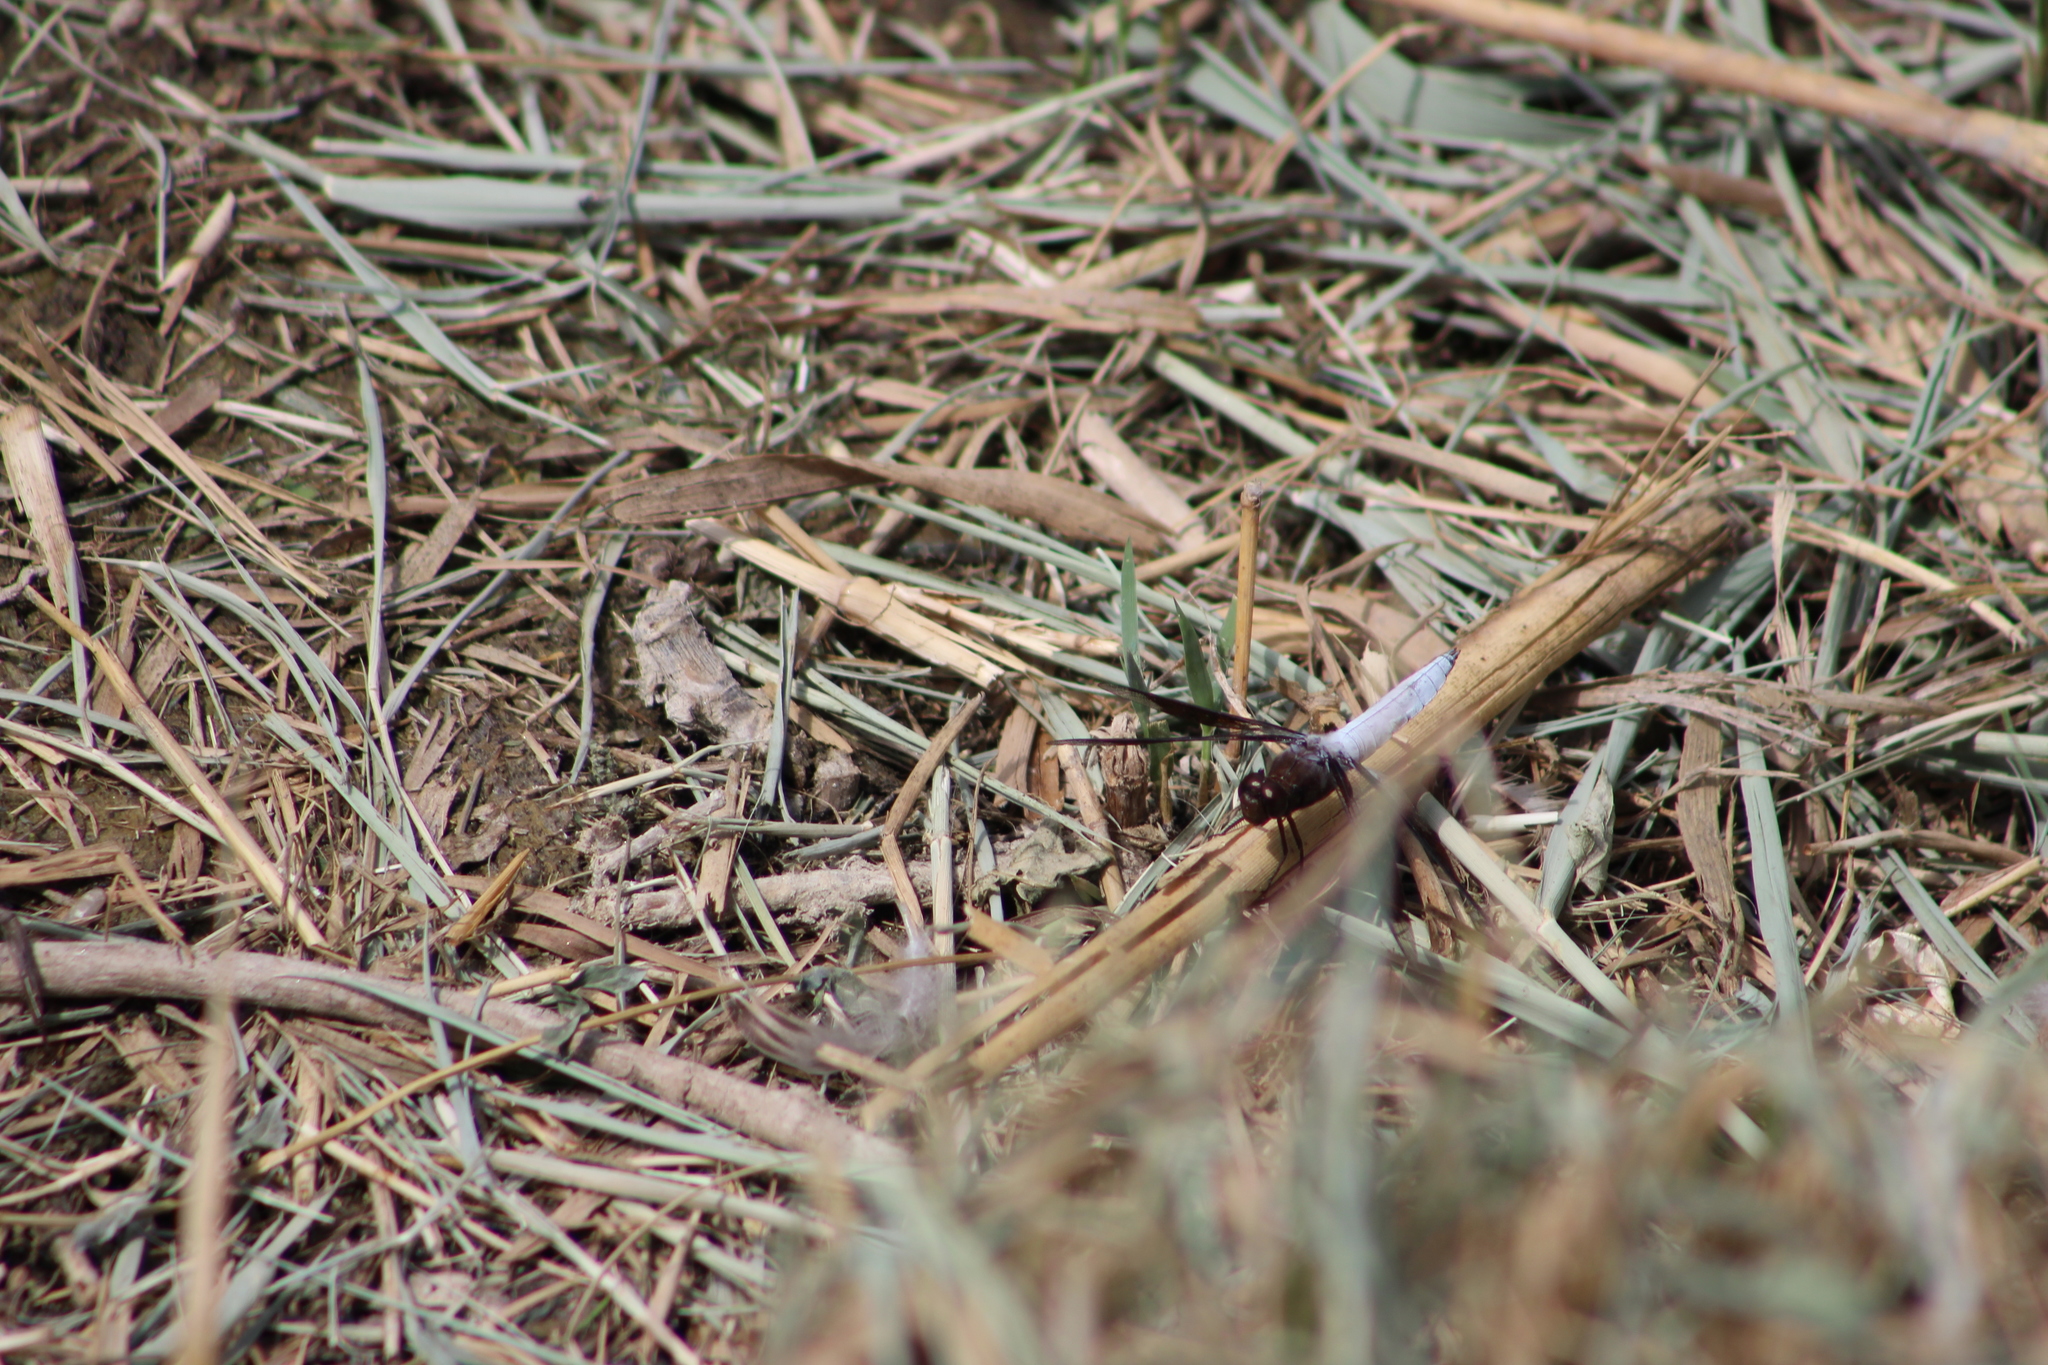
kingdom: Animalia
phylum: Arthropoda
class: Insecta
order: Odonata
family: Libellulidae
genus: Plathemis
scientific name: Plathemis lydia
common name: Common whitetail
